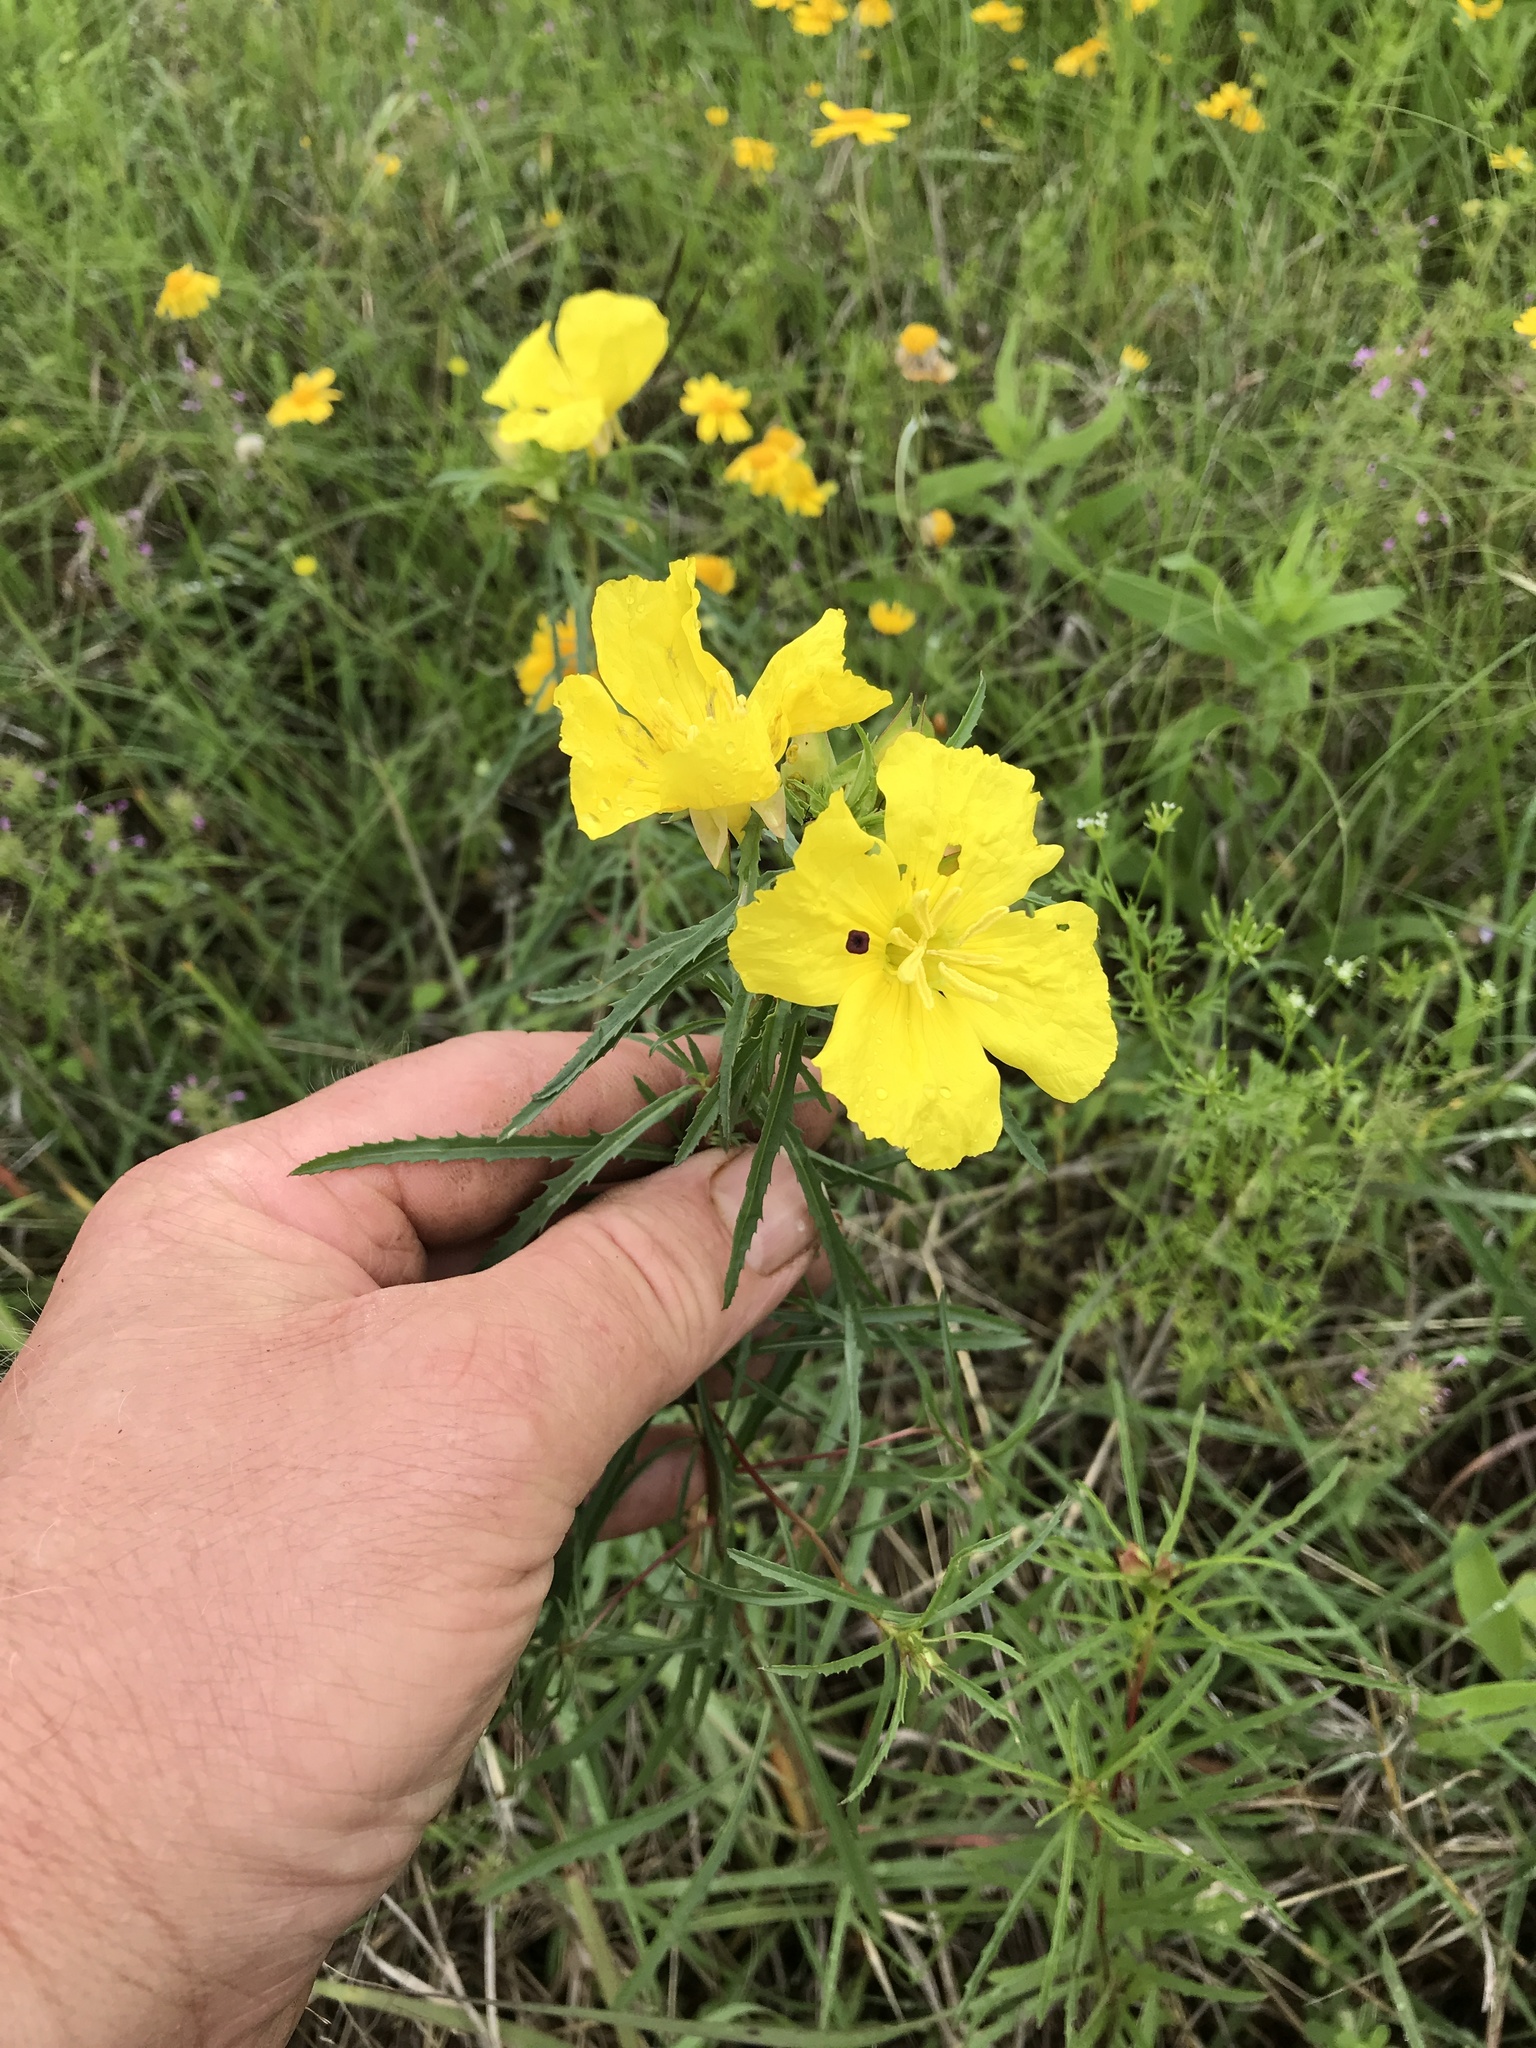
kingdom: Plantae
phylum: Tracheophyta
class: Magnoliopsida
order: Myrtales
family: Onagraceae
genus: Oenothera
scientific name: Oenothera
